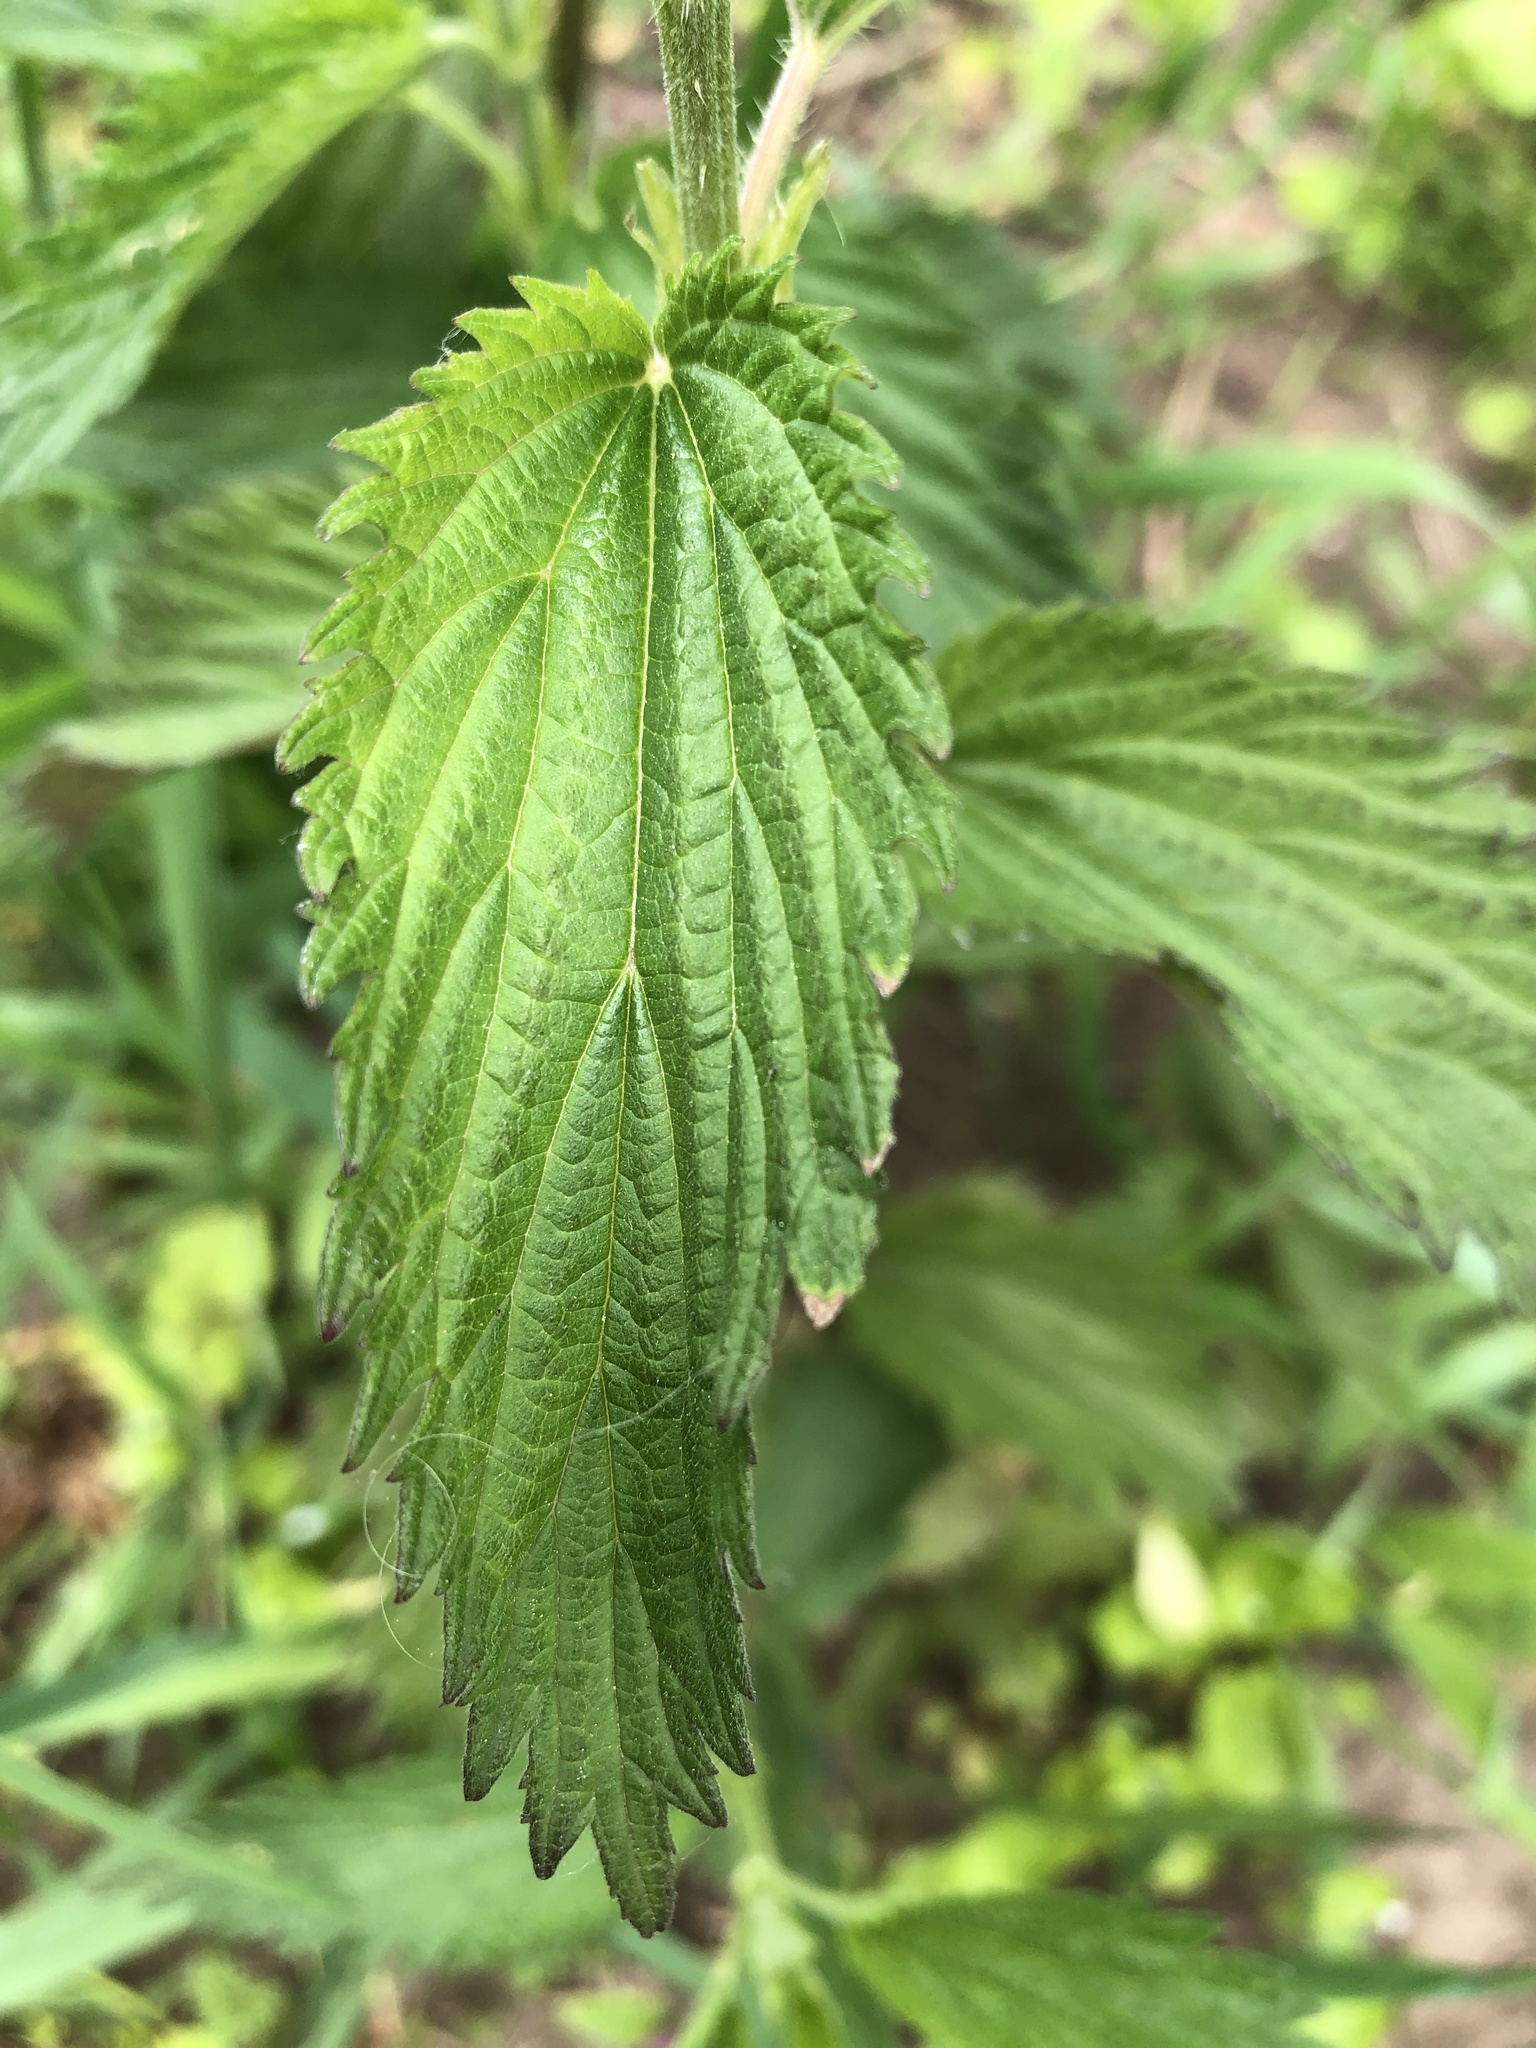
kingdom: Plantae
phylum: Tracheophyta
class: Magnoliopsida
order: Rosales
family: Urticaceae
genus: Urtica
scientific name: Urtica dioica
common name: Common nettle
